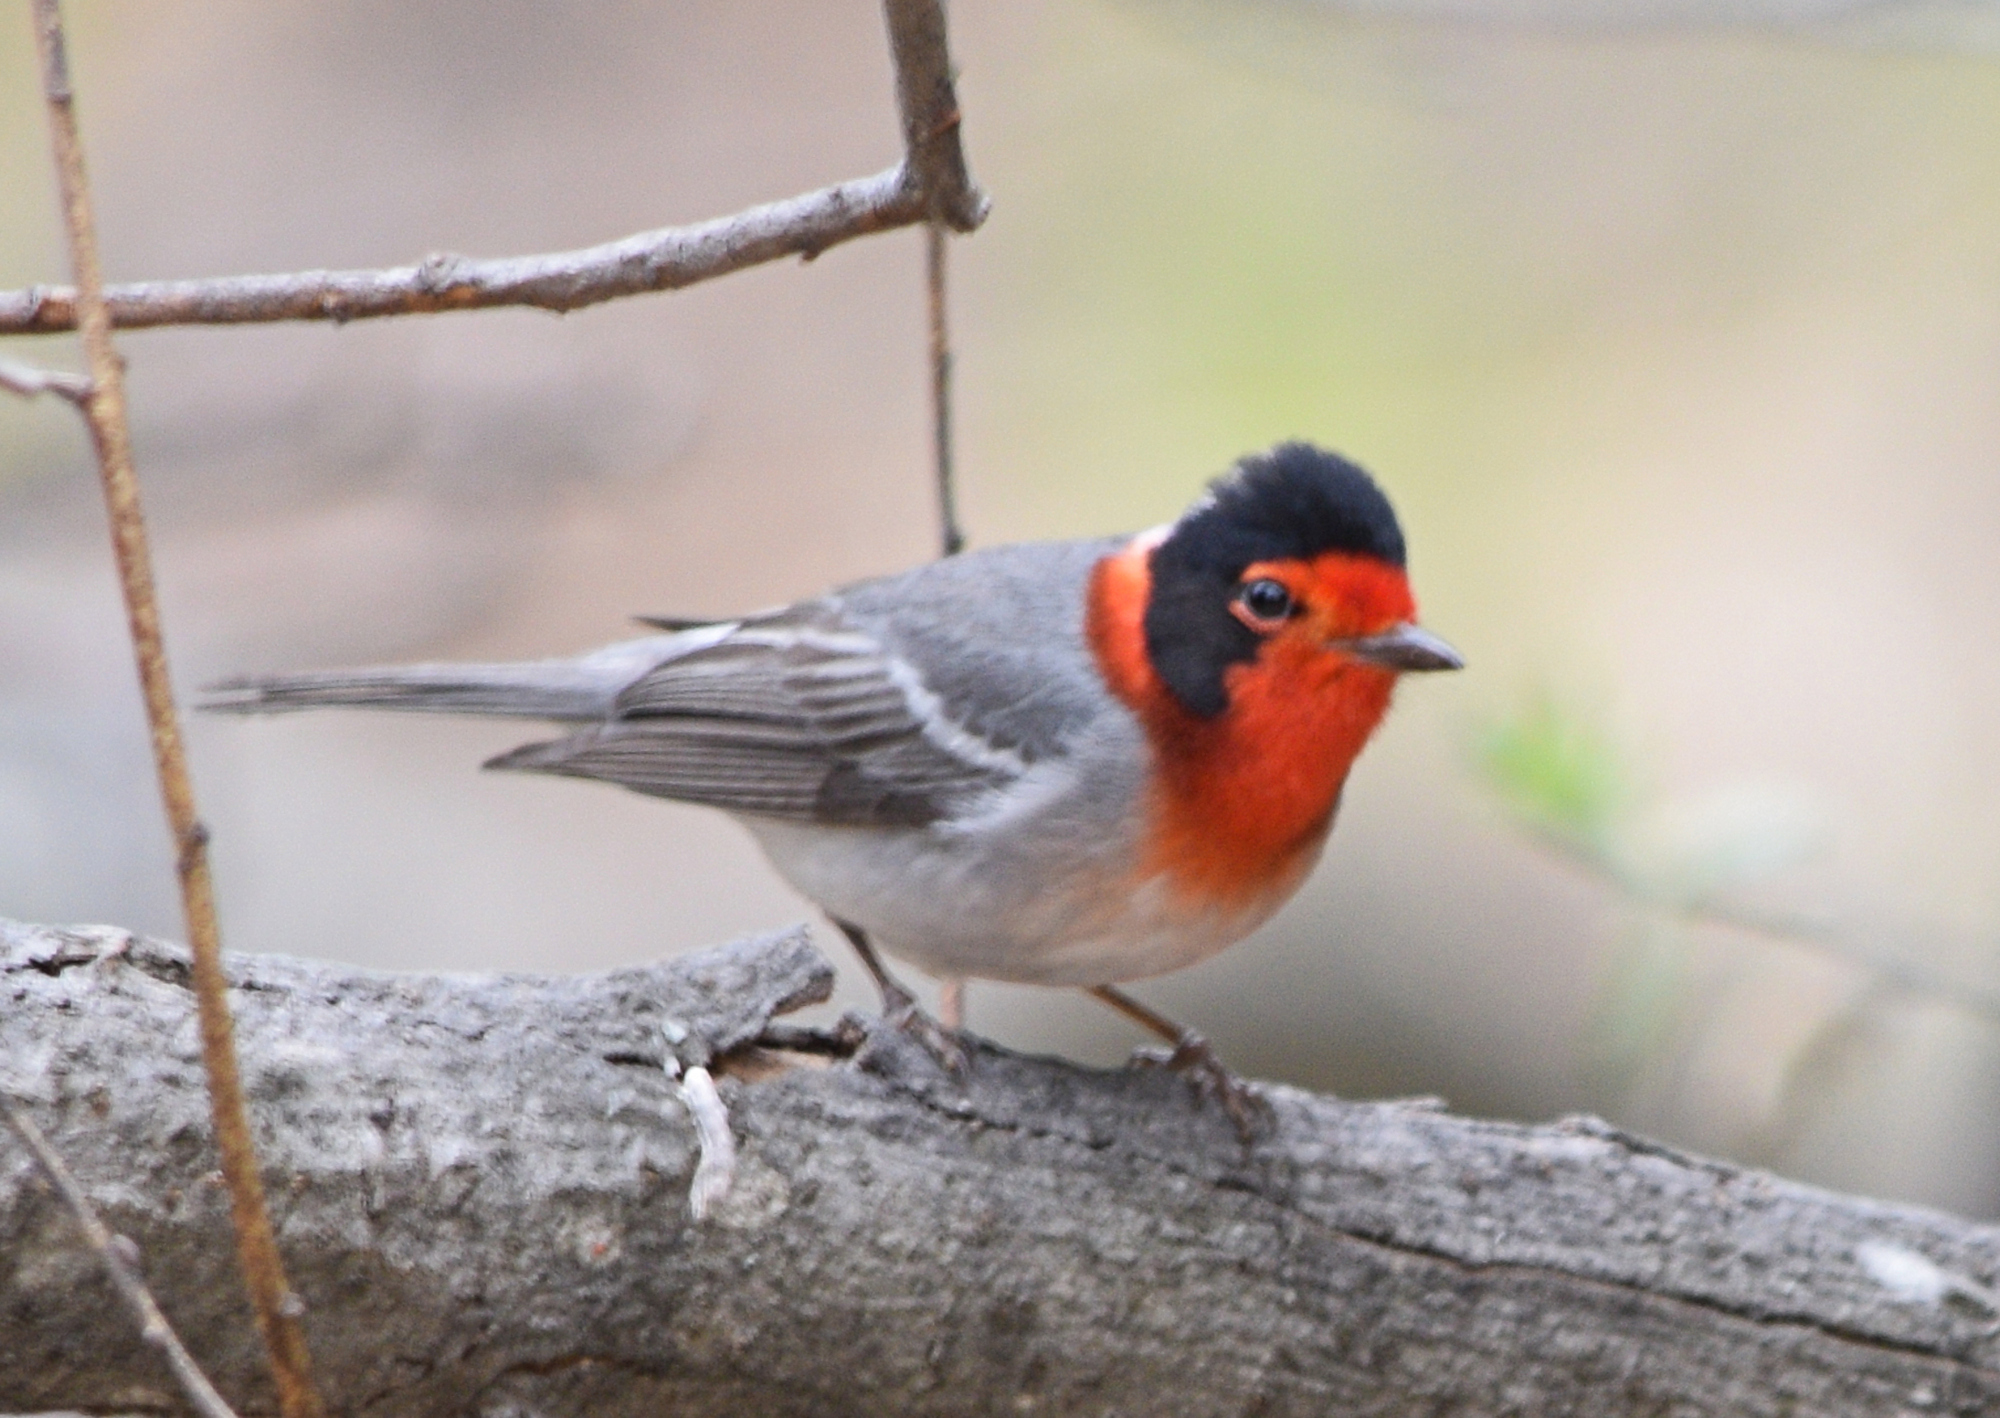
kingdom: Animalia
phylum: Chordata
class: Aves
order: Passeriformes
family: Parulidae
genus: Cardellina
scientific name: Cardellina rubrifrons
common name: Red-faced warbler
